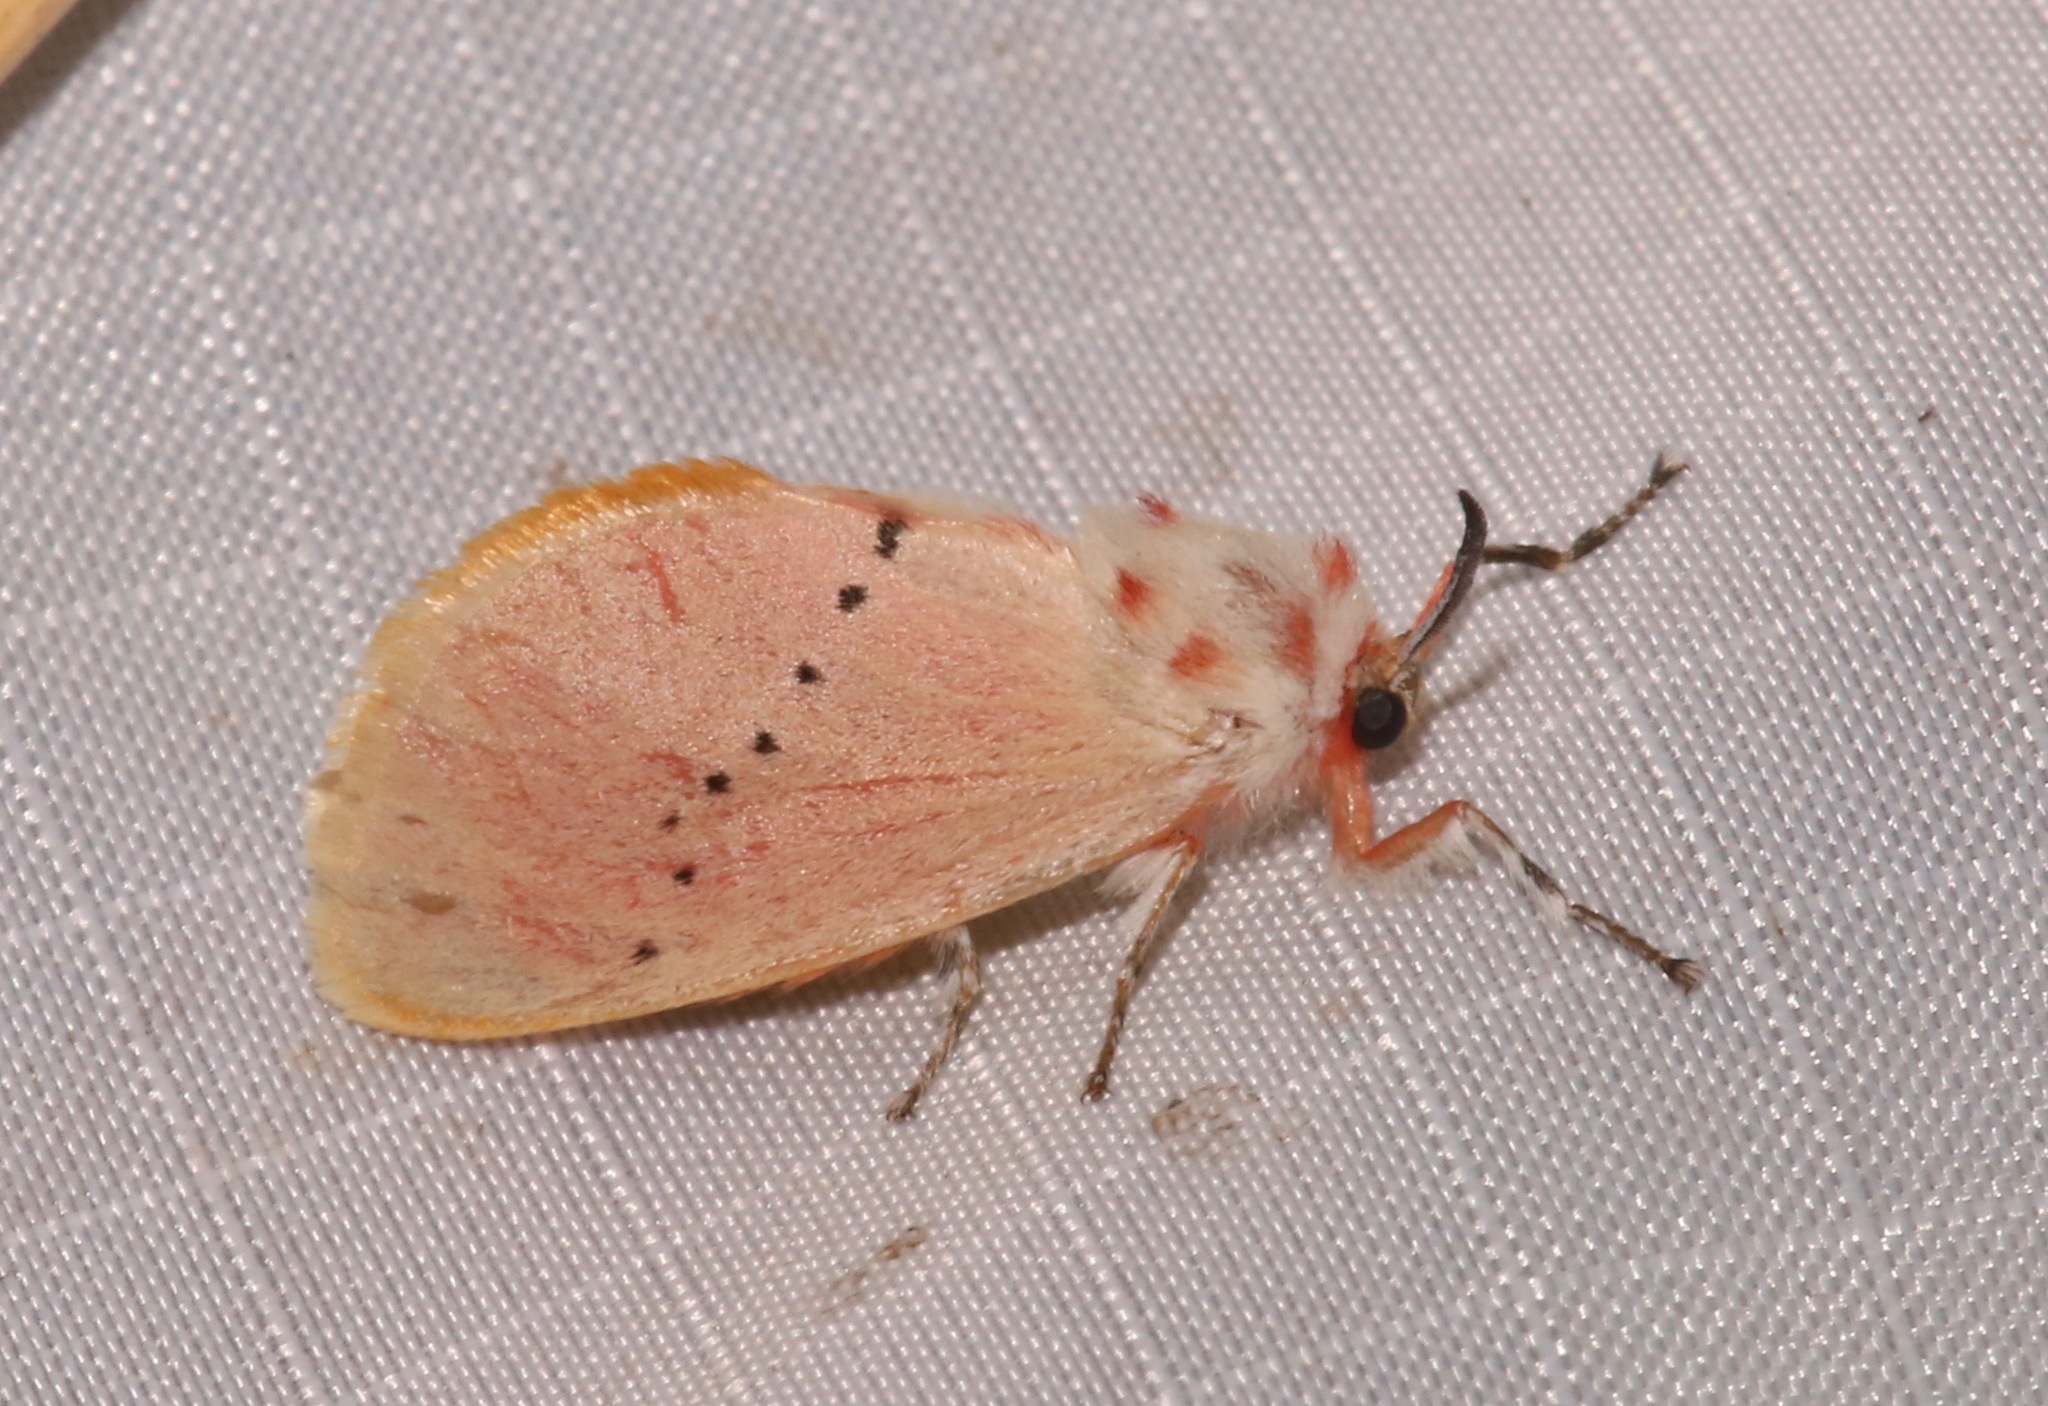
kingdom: Animalia
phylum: Arthropoda
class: Insecta
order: Lepidoptera
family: Megalopygidae
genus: Trosia
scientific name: Trosia obsolescens
